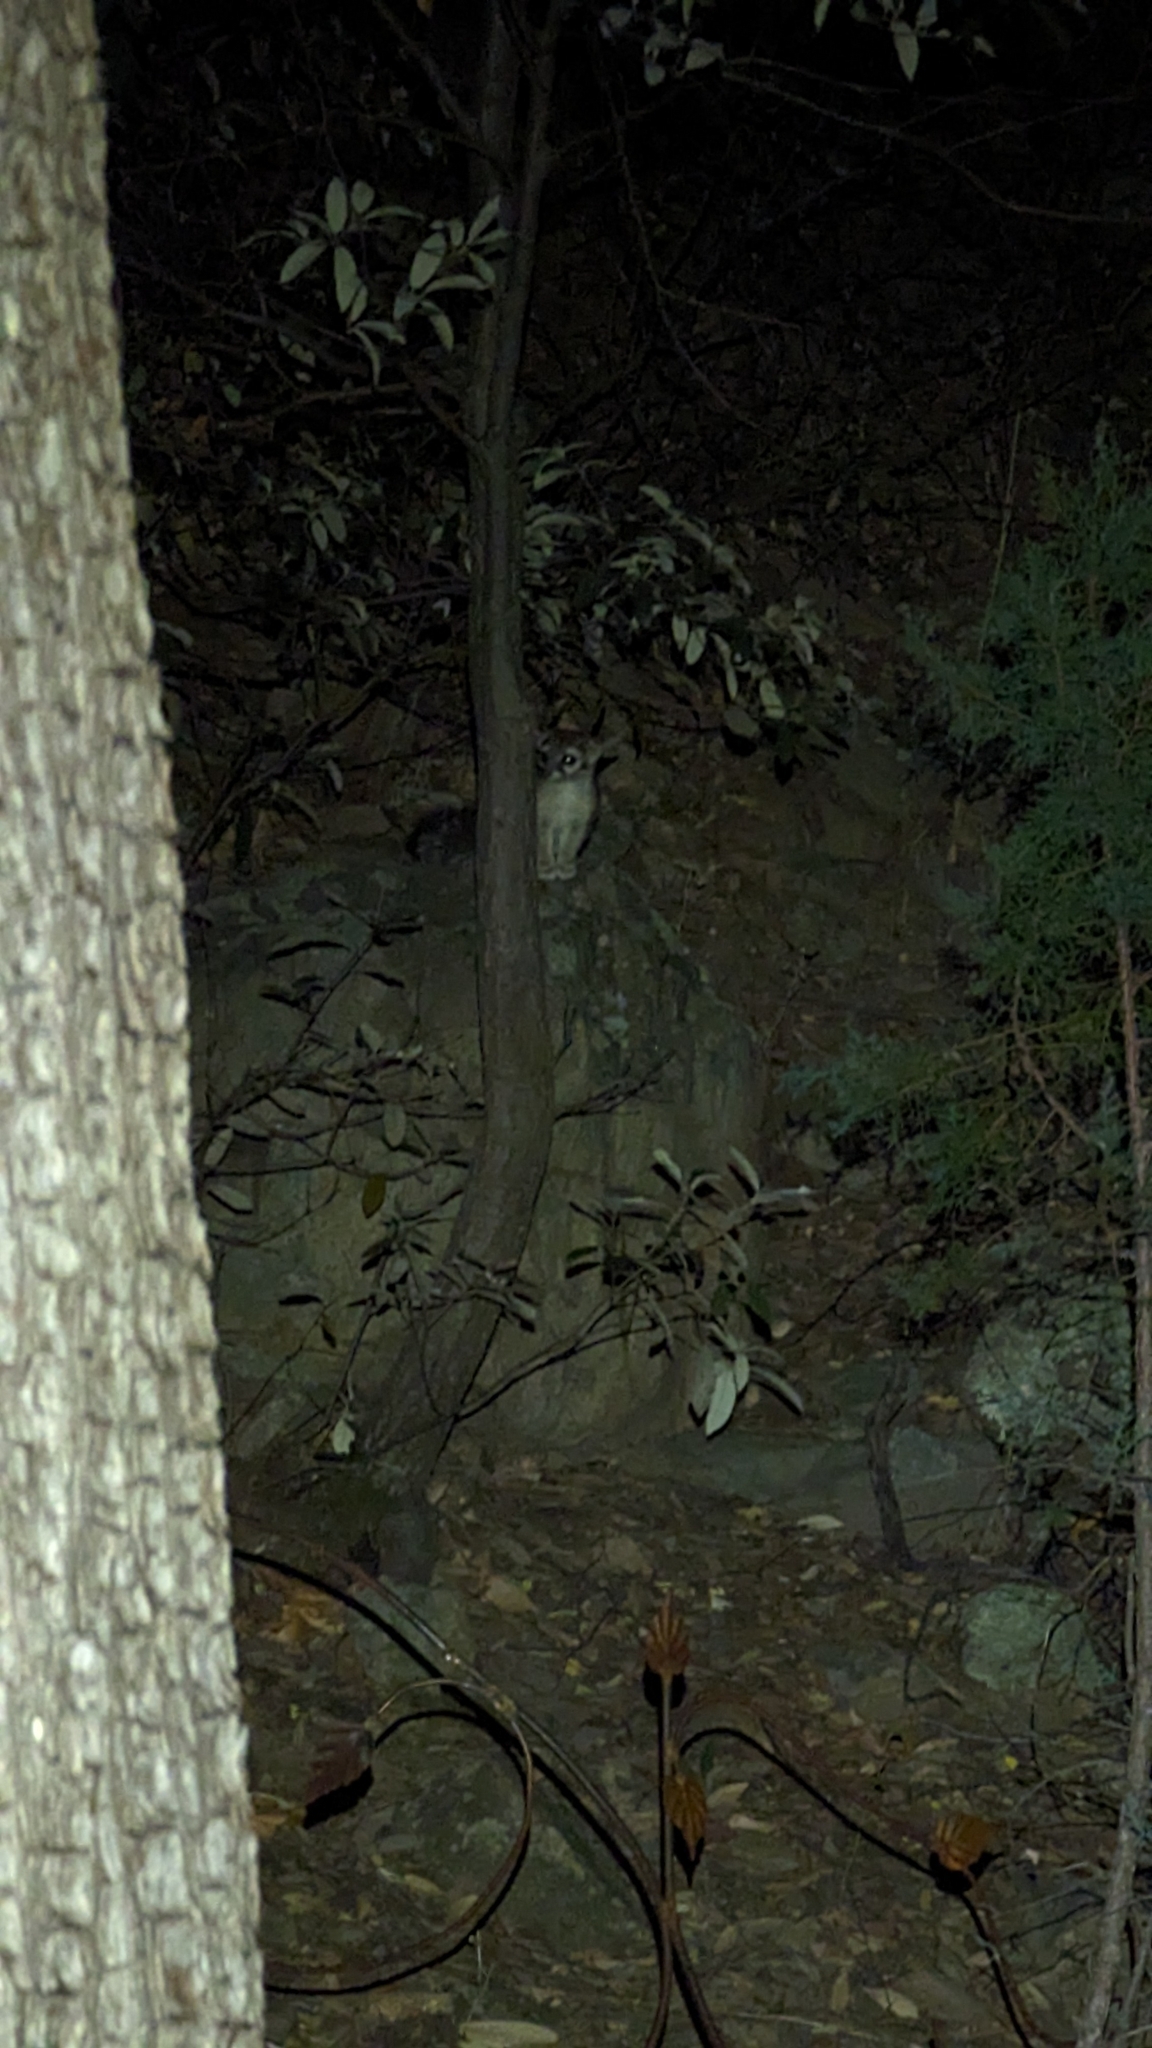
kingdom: Animalia
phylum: Chordata
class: Mammalia
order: Carnivora
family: Procyonidae
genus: Bassariscus
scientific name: Bassariscus astutus
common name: Ringtail
